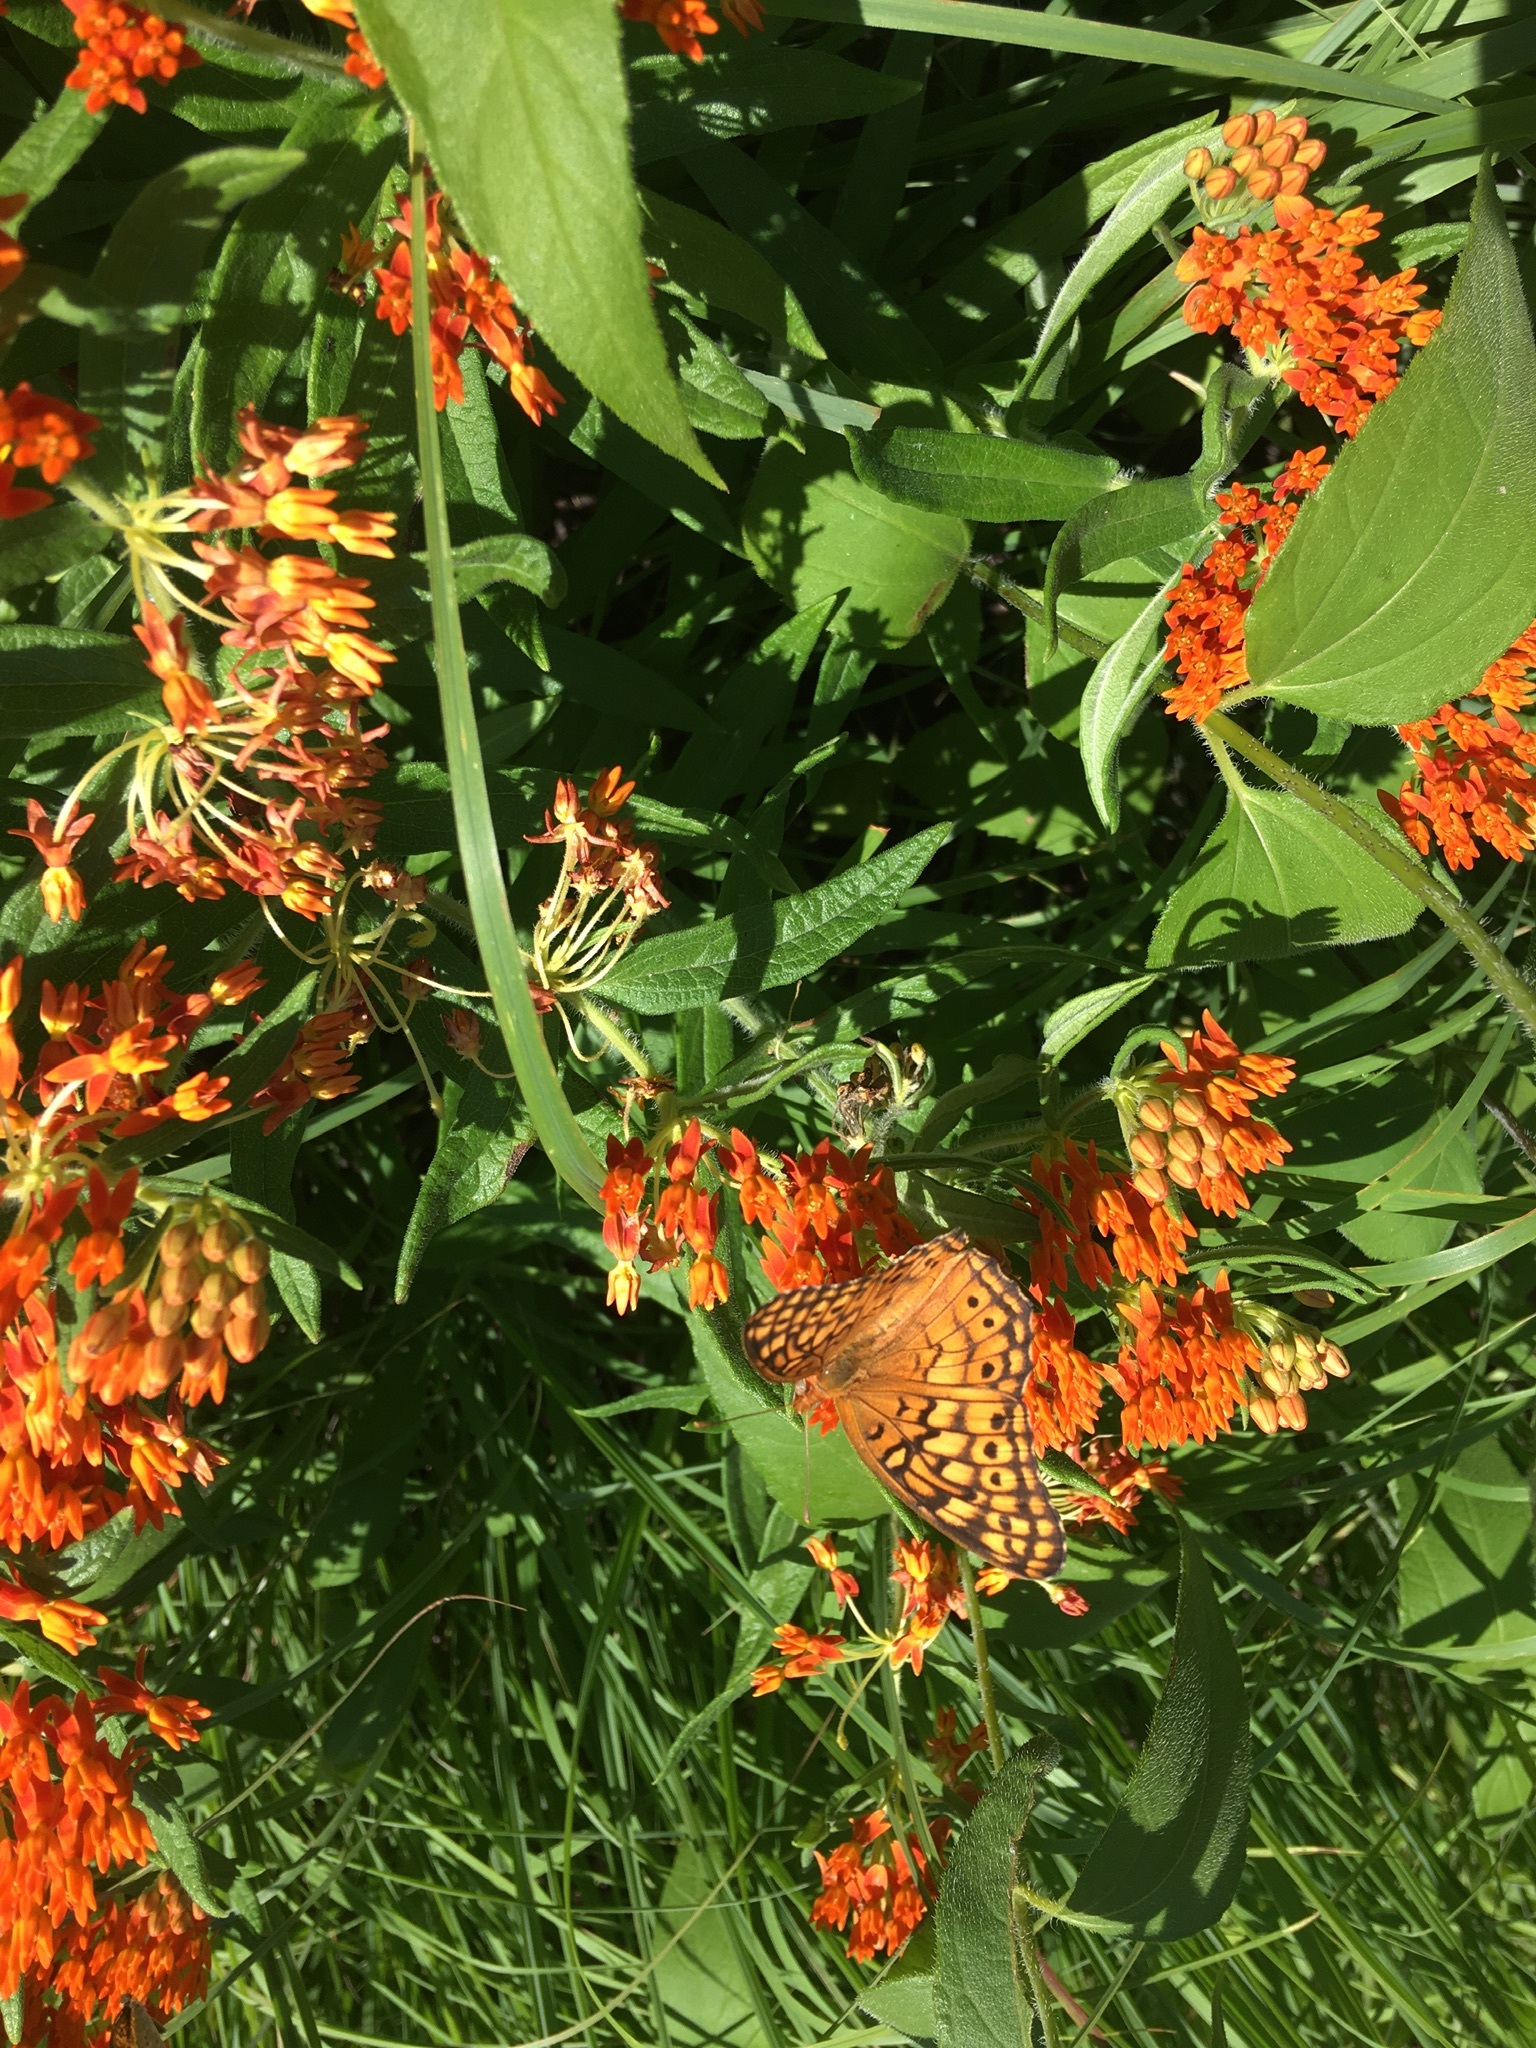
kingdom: Animalia
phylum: Arthropoda
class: Insecta
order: Lepidoptera
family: Nymphalidae
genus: Euptoieta
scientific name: Euptoieta claudia
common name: Variegated fritillary
